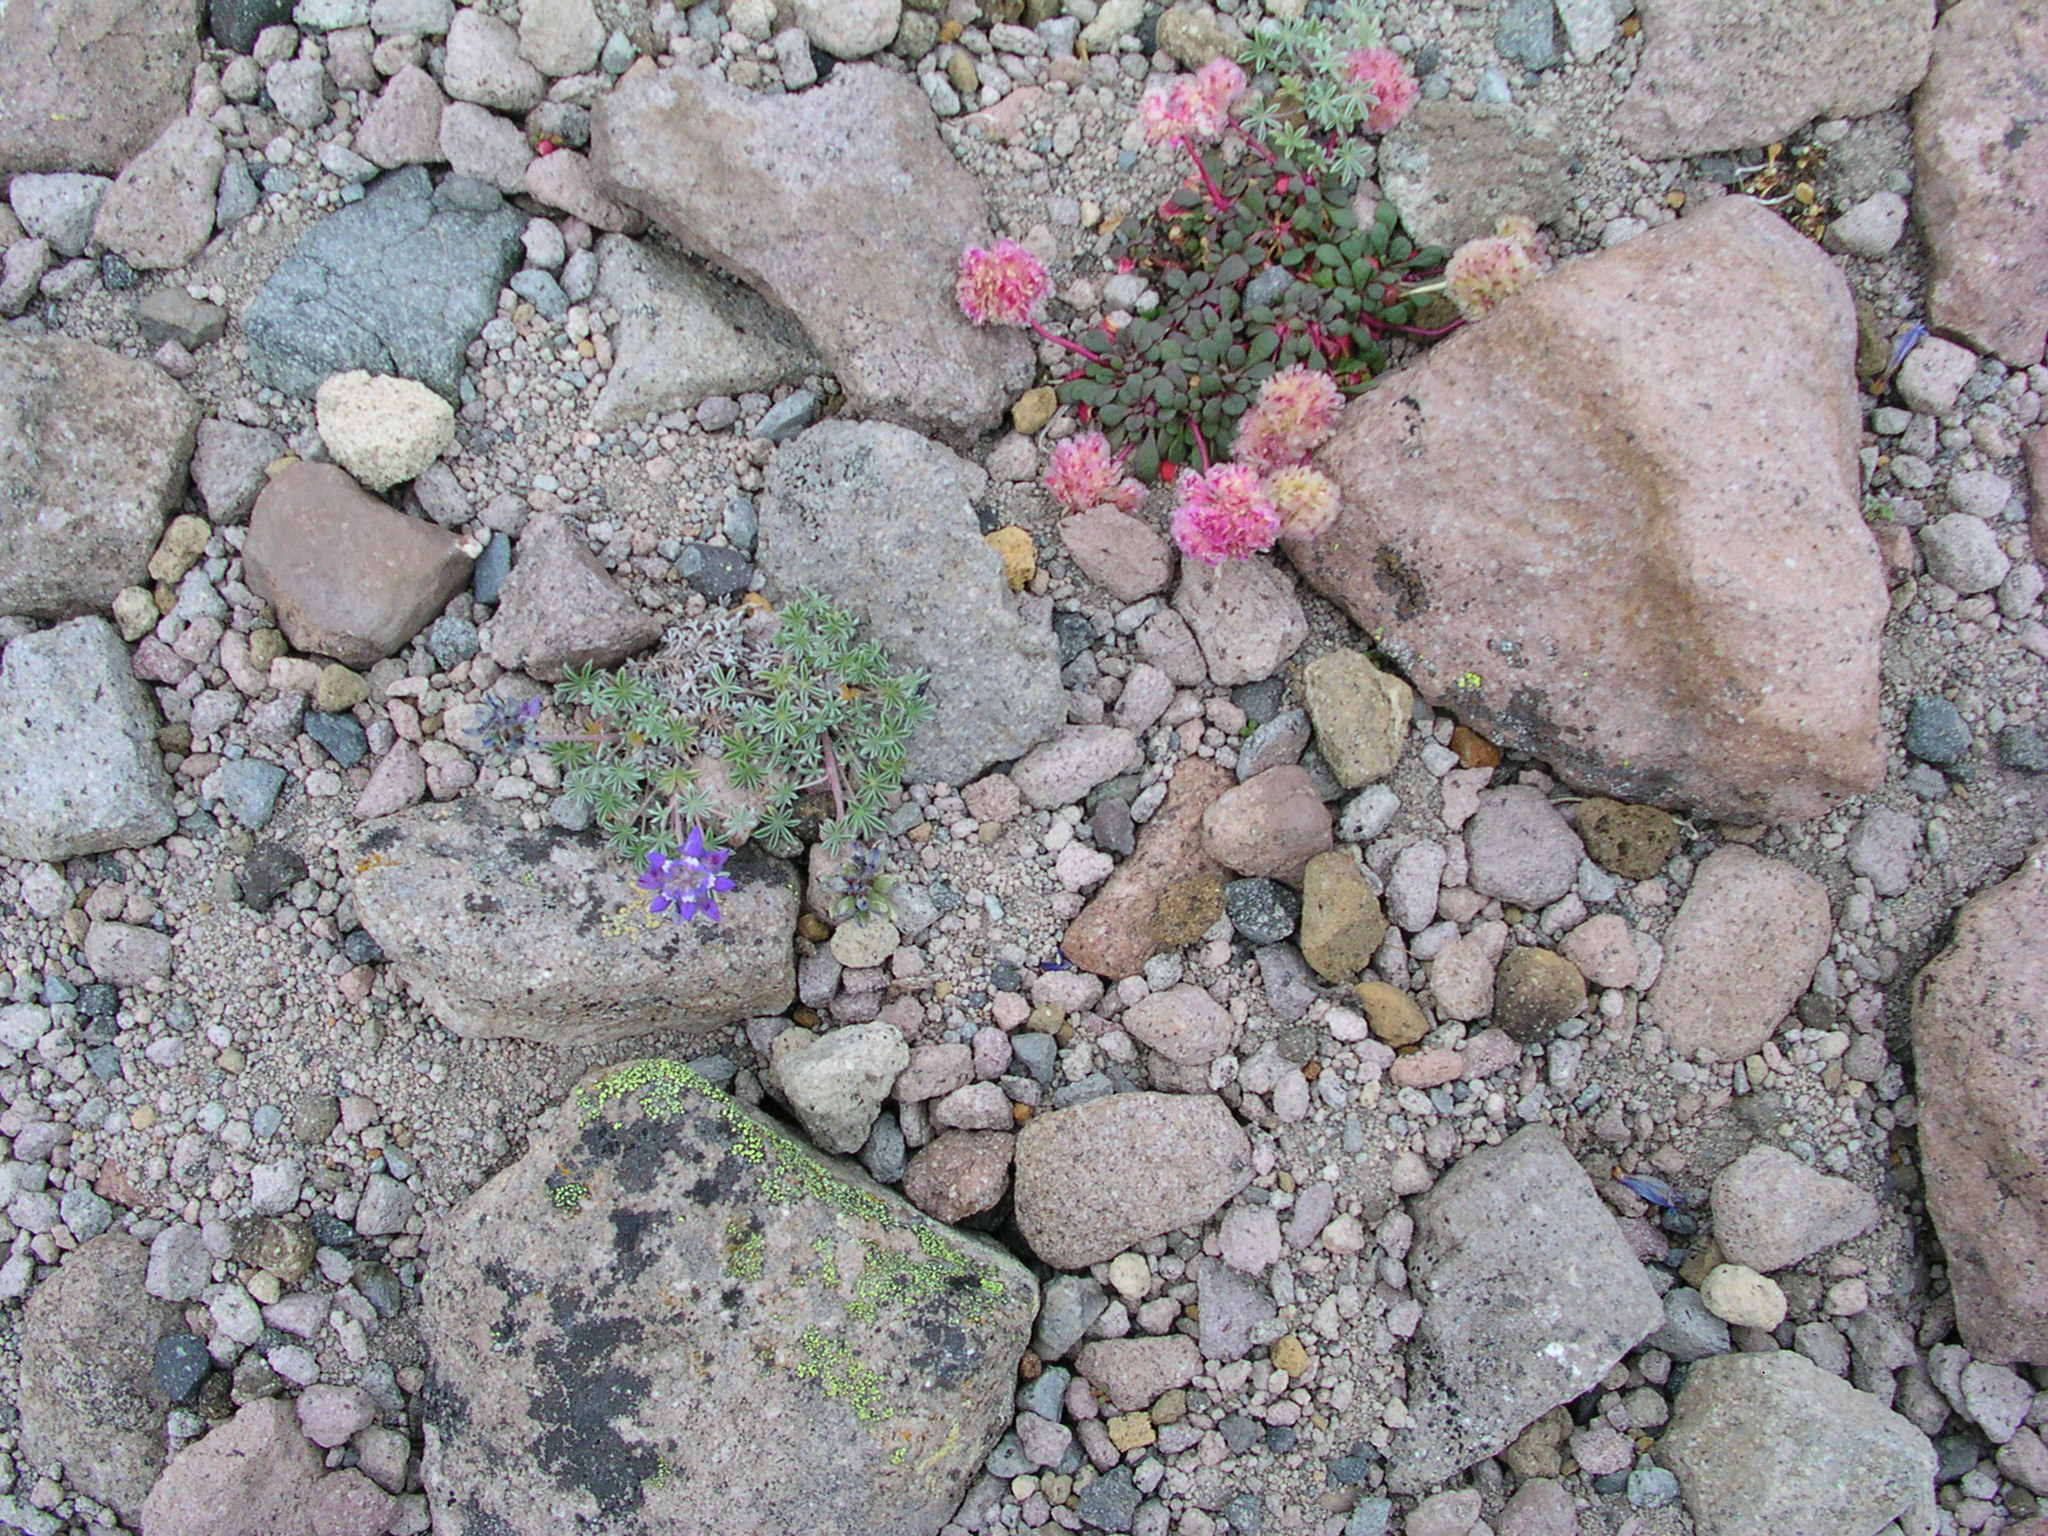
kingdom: Plantae
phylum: Tracheophyta
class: Magnoliopsida
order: Fabales
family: Fabaceae
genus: Lupinus
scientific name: Lupinus sellulus
